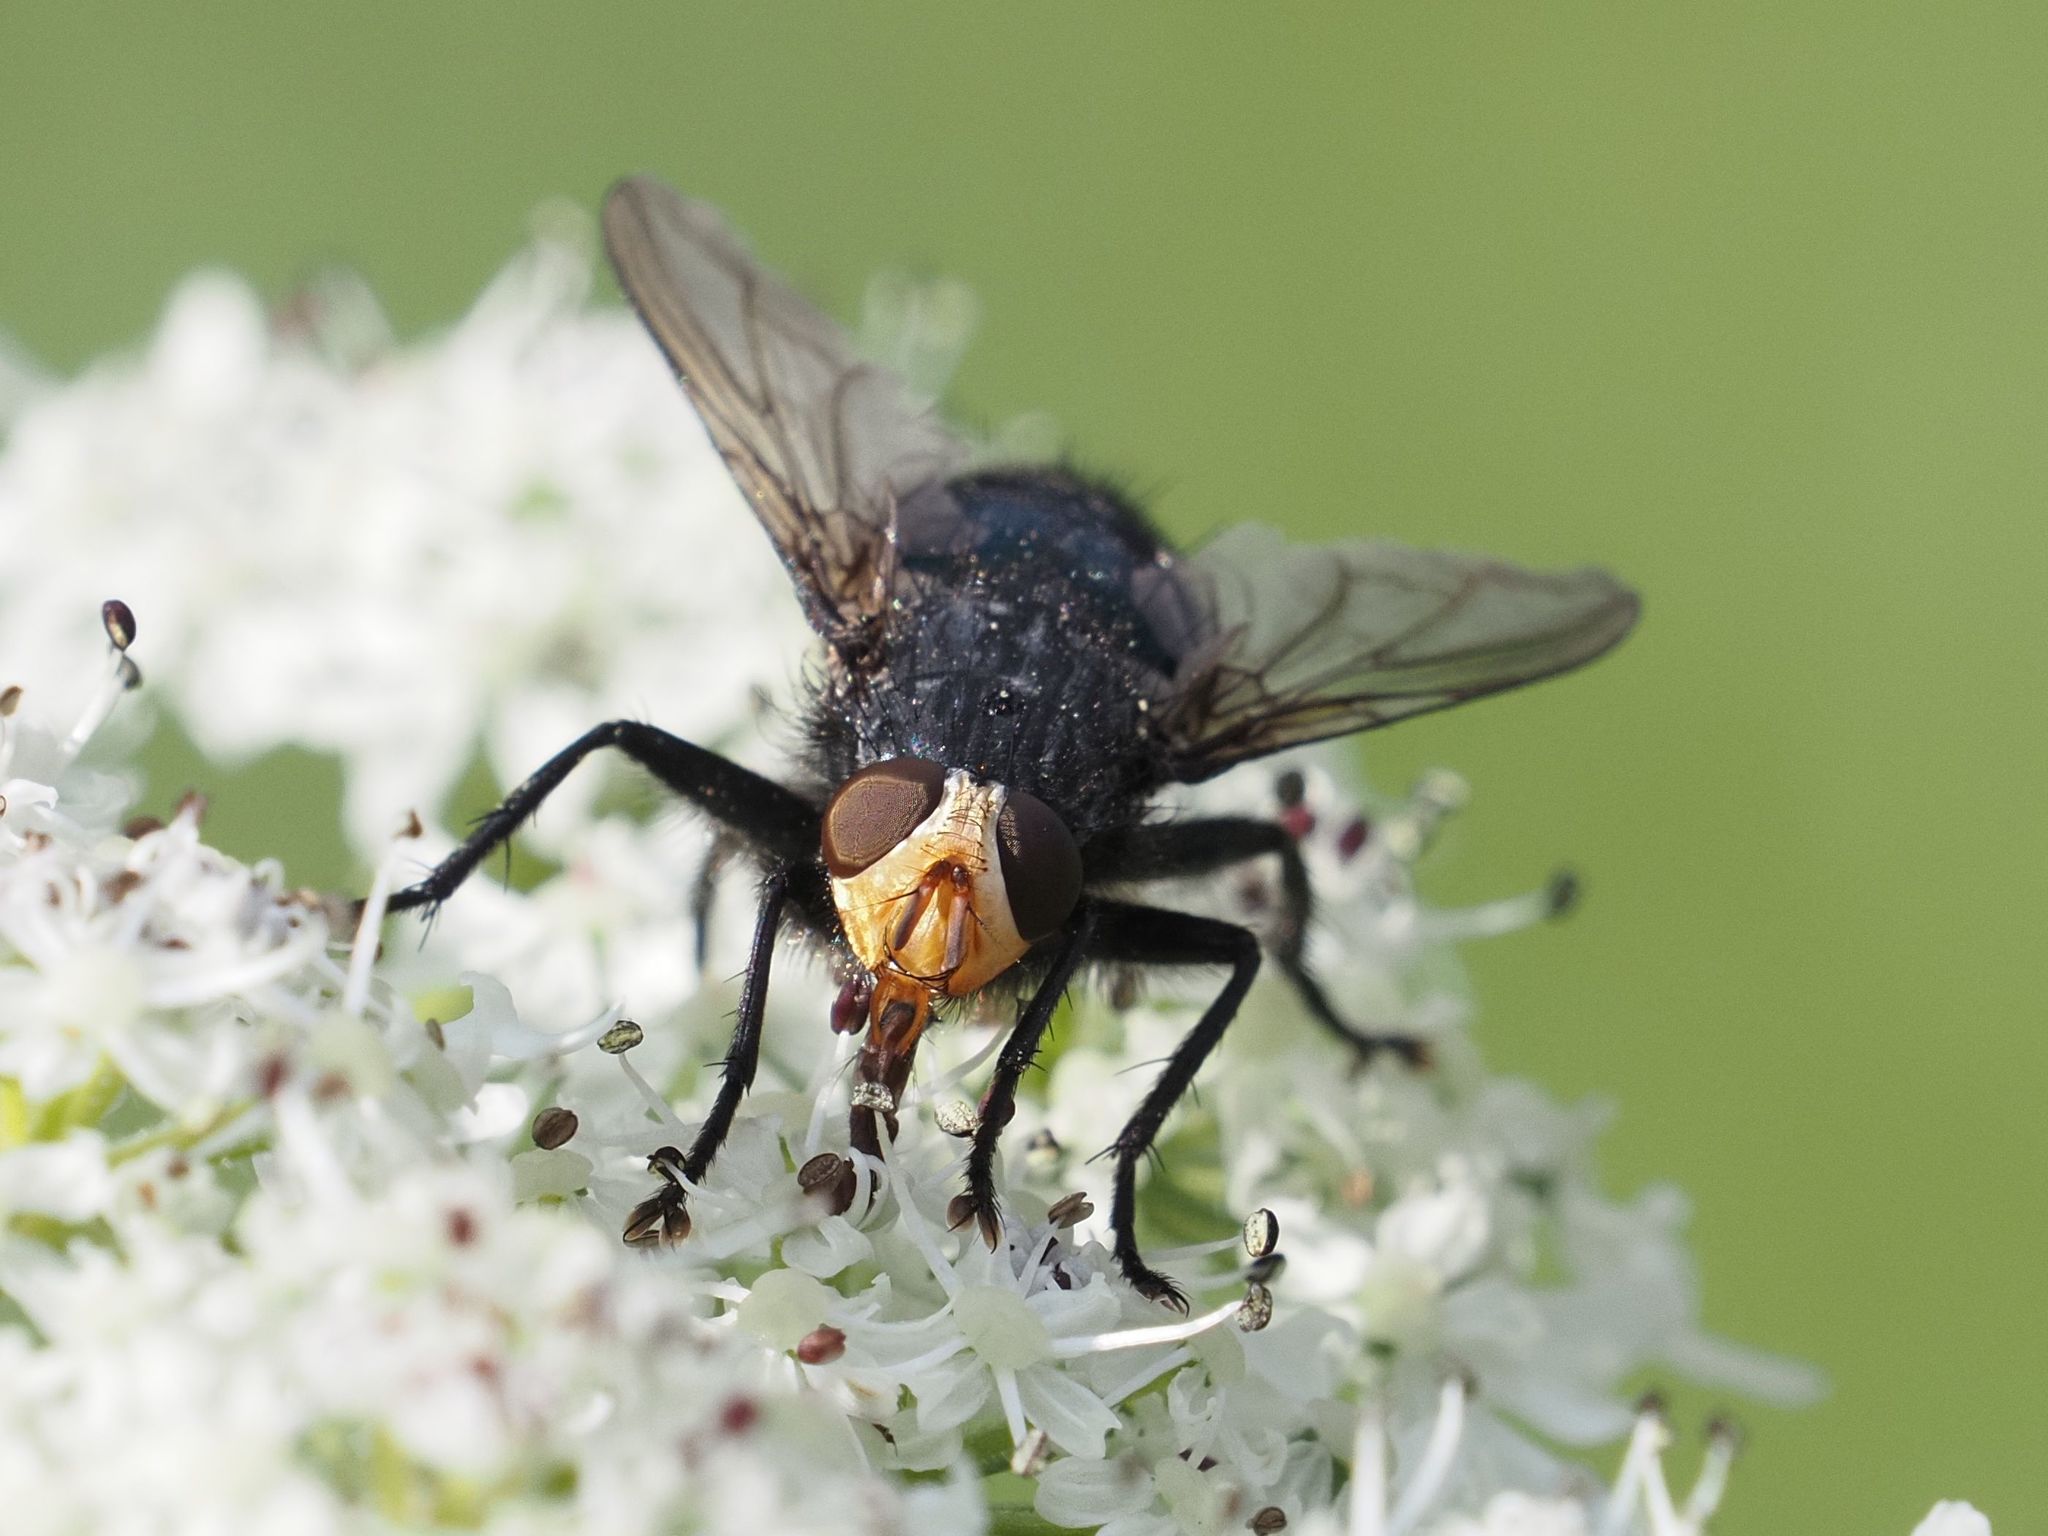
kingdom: Animalia
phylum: Arthropoda
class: Insecta
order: Diptera
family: Calliphoridae
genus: Cynomya
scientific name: Cynomya mortuorum
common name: Bluebottle blow fly
